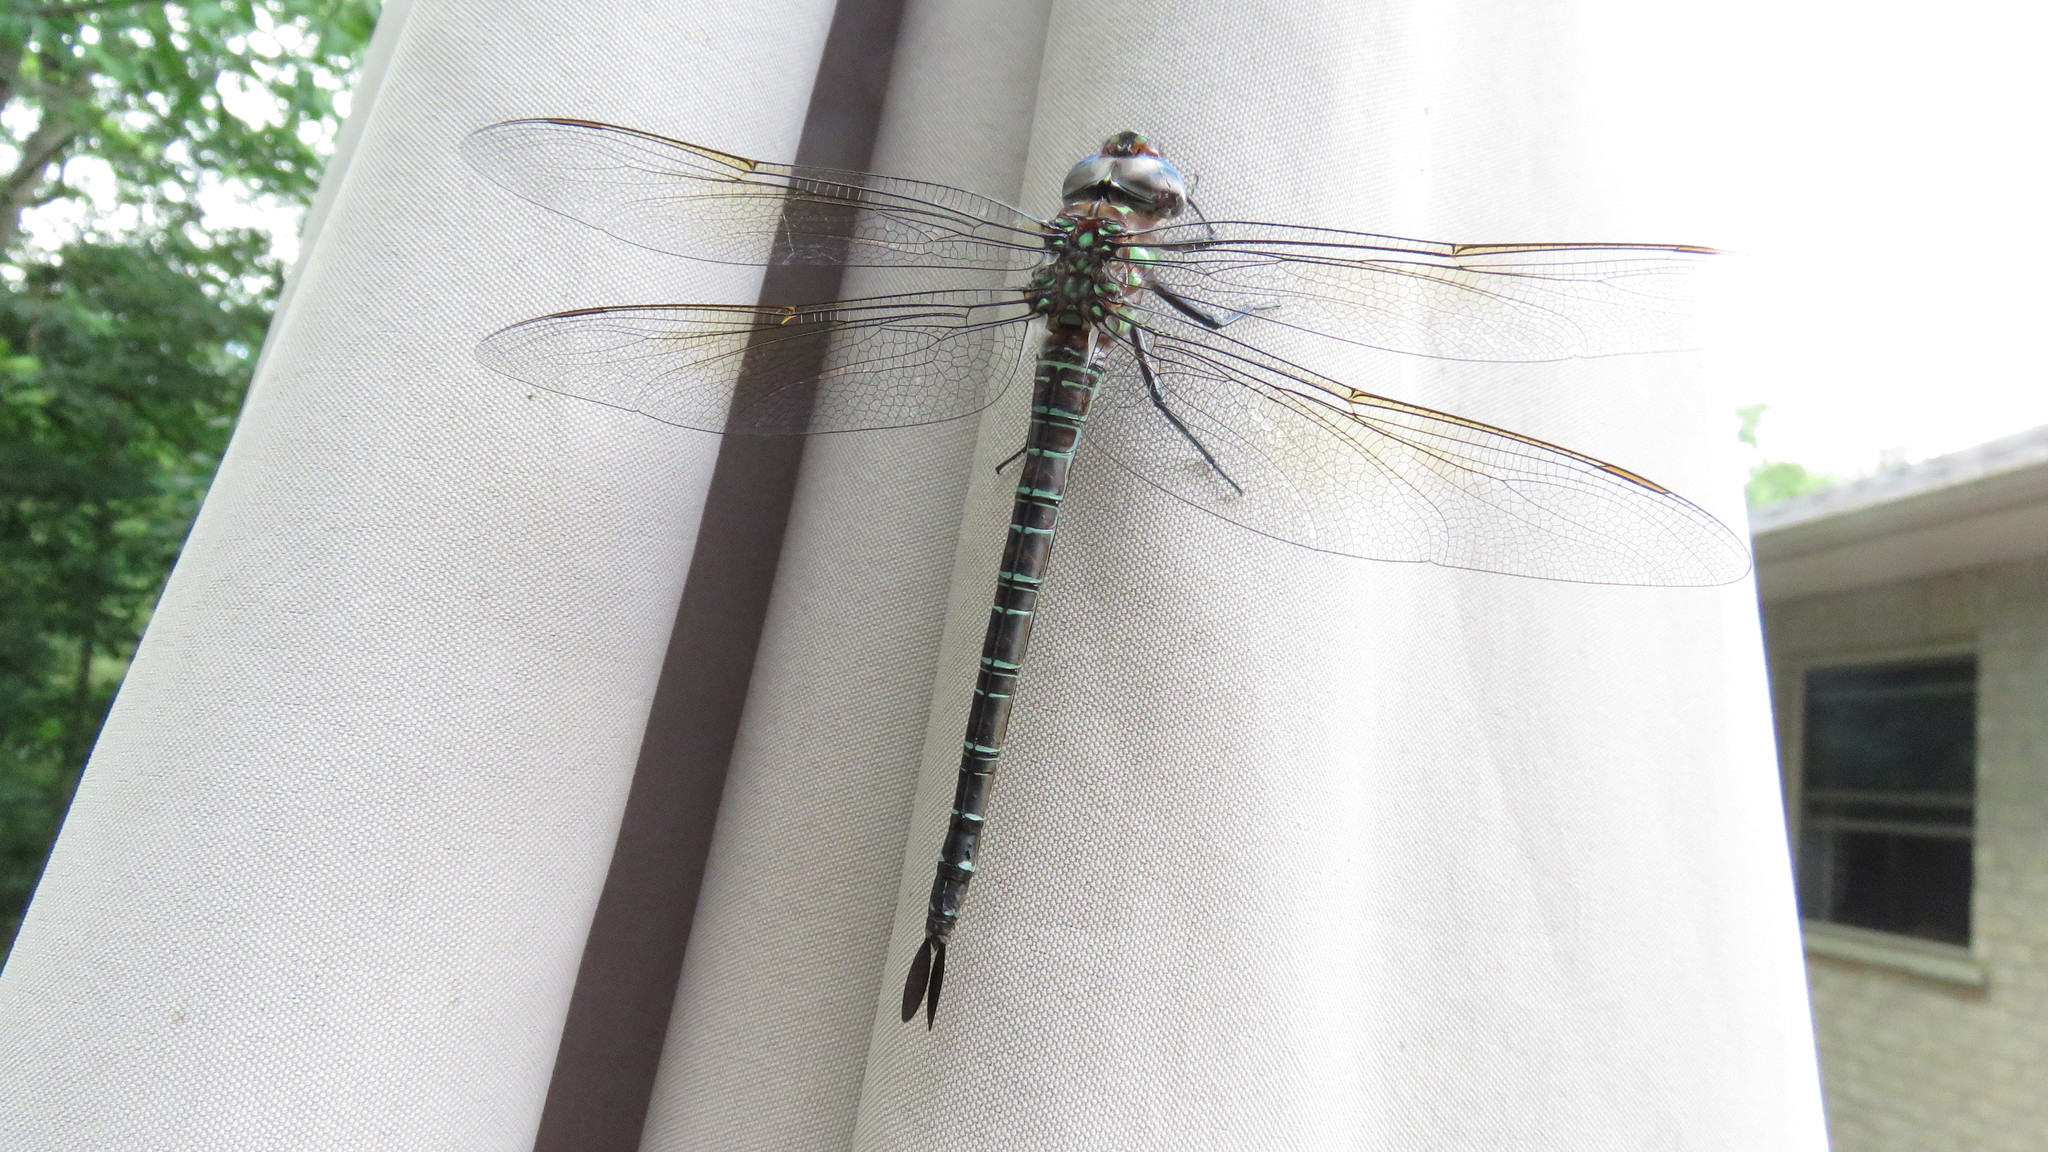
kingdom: Animalia
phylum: Arthropoda
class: Insecta
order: Odonata
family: Aeshnidae
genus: Epiaeschna
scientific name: Epiaeschna heros
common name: Swamp darner
